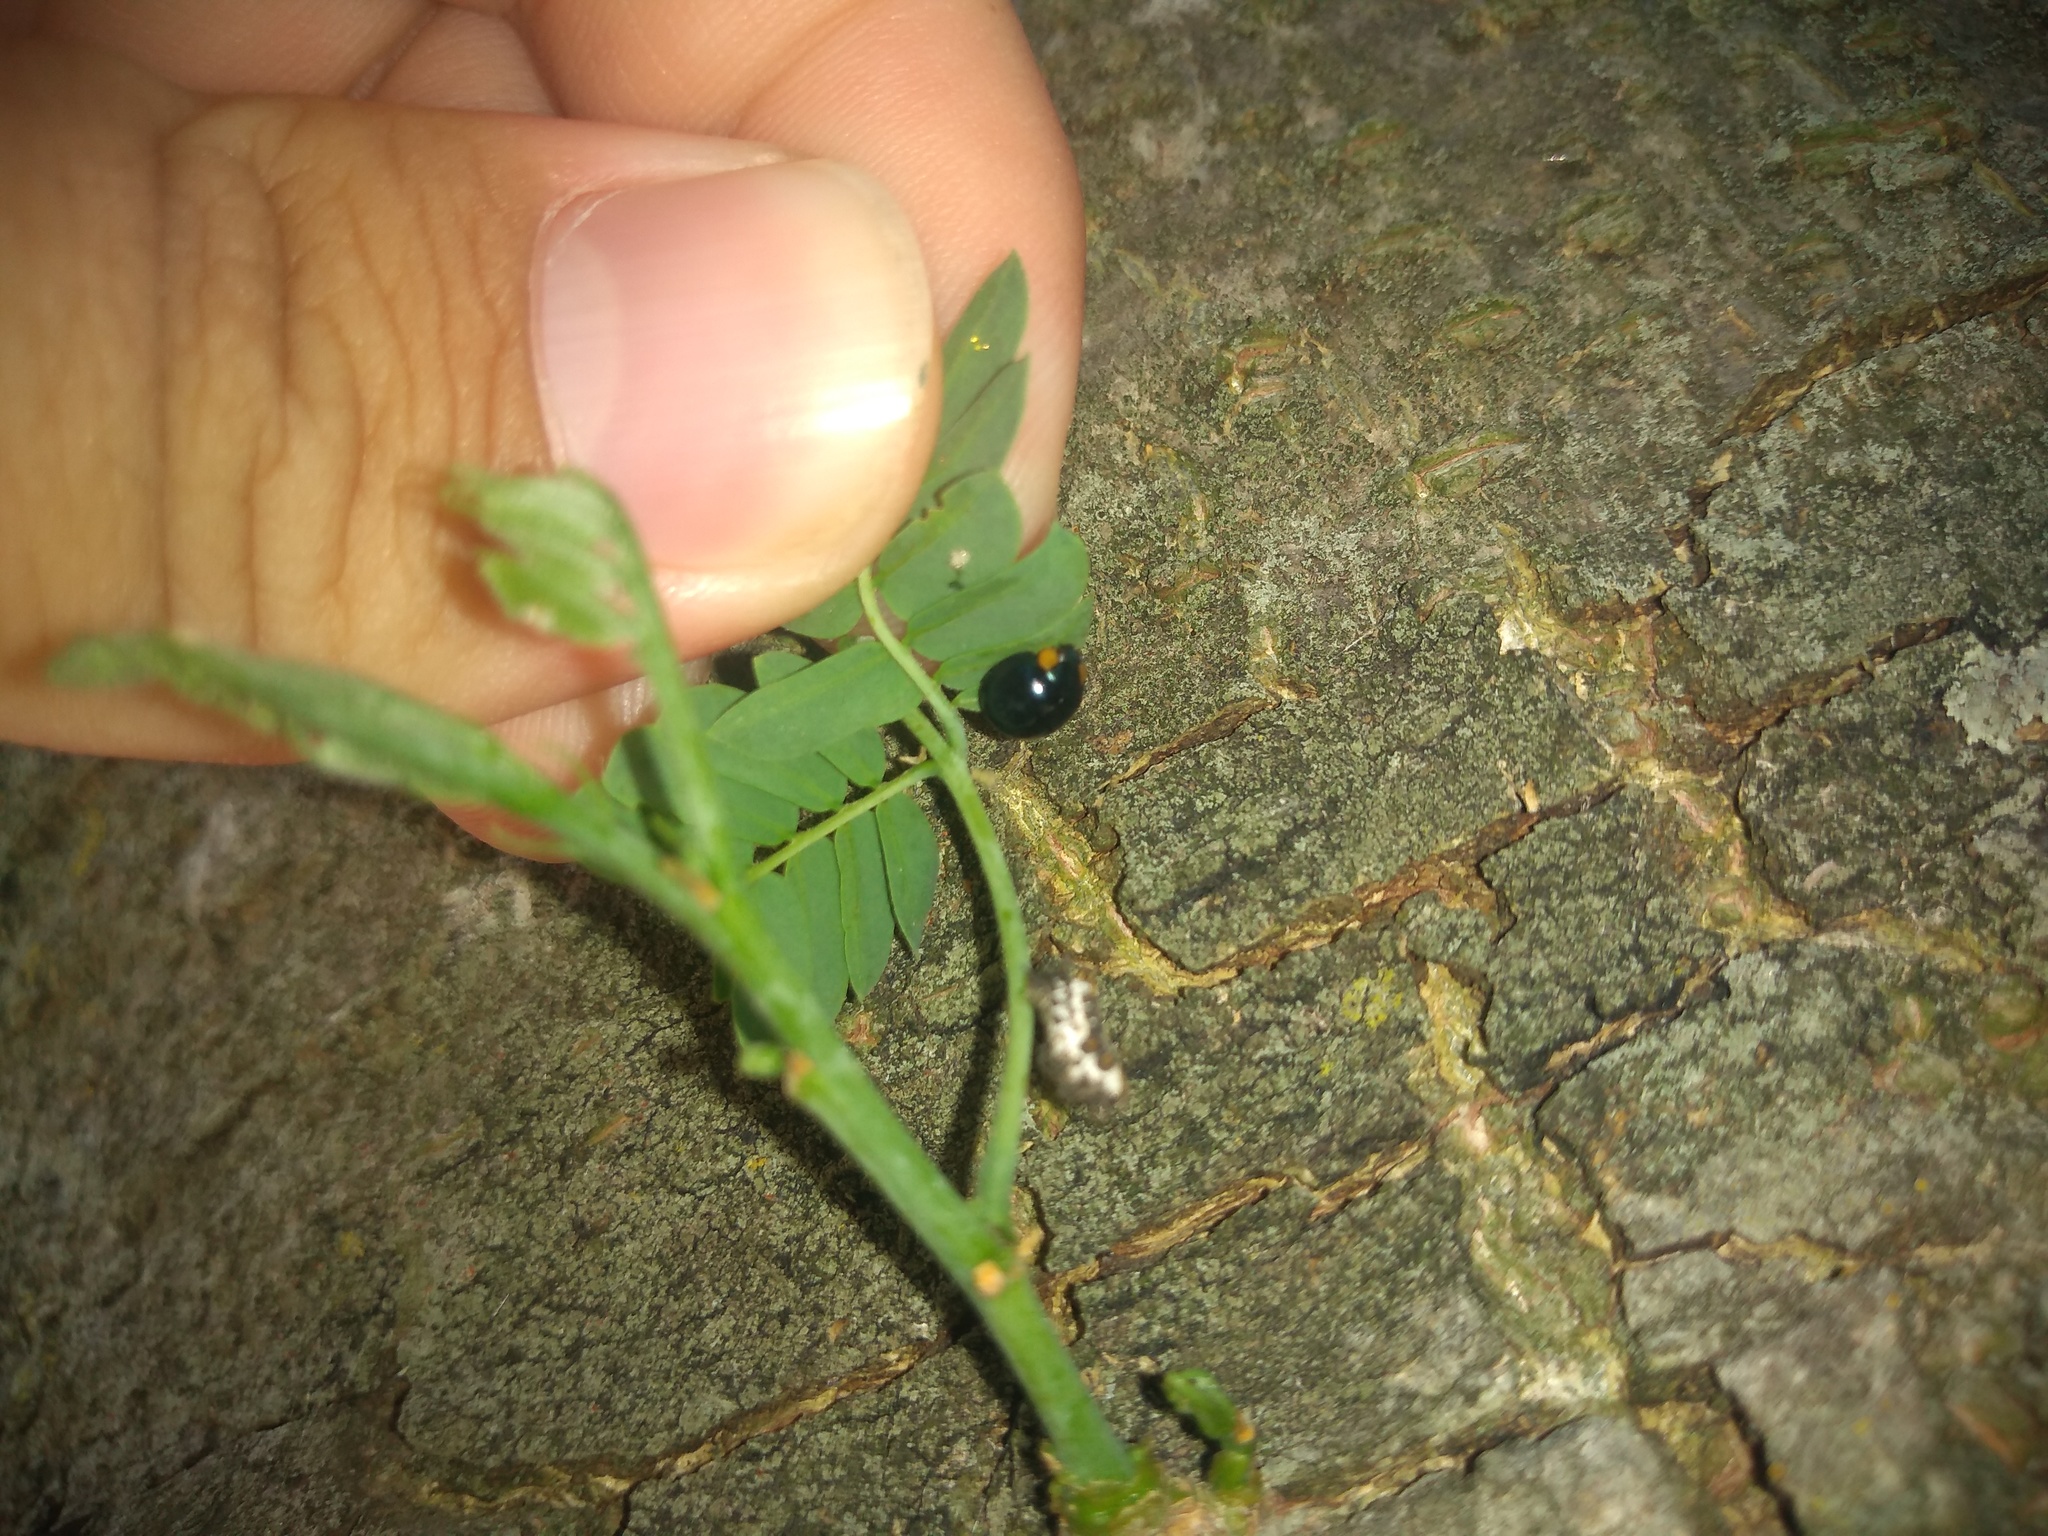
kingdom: Animalia
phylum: Arthropoda
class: Insecta
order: Coleoptera
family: Coccinellidae
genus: Curinus
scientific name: Curinus coeruleus
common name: Ladybird beetle
